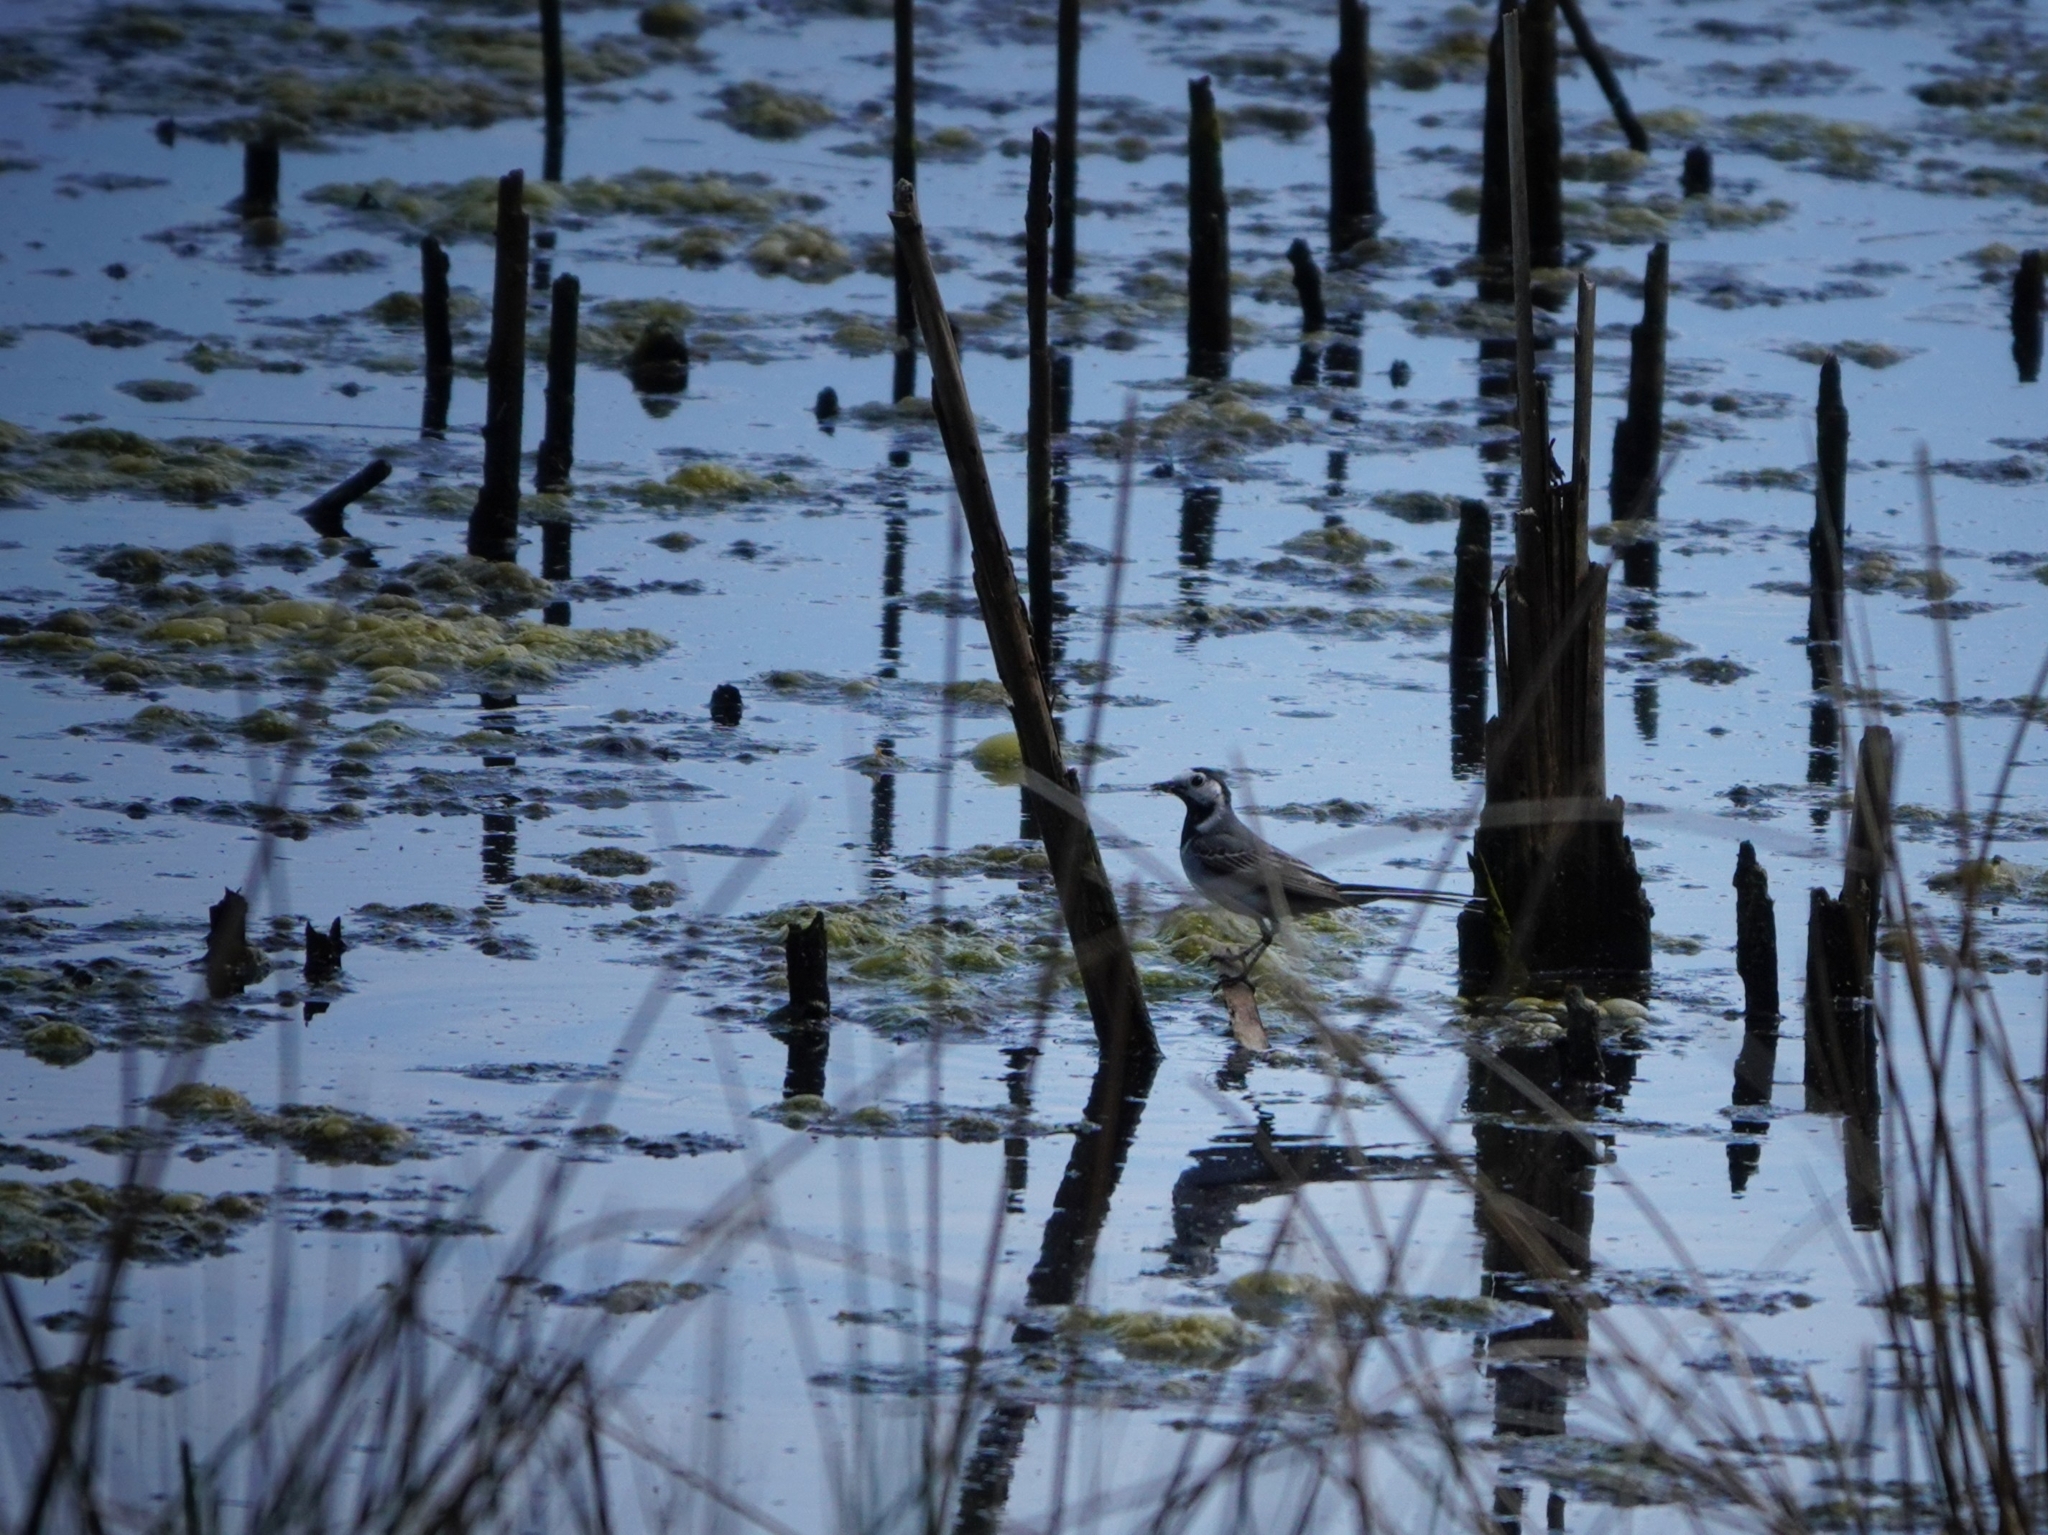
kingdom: Animalia
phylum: Chordata
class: Aves
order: Passeriformes
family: Motacillidae
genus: Motacilla
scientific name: Motacilla alba
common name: White wagtail
